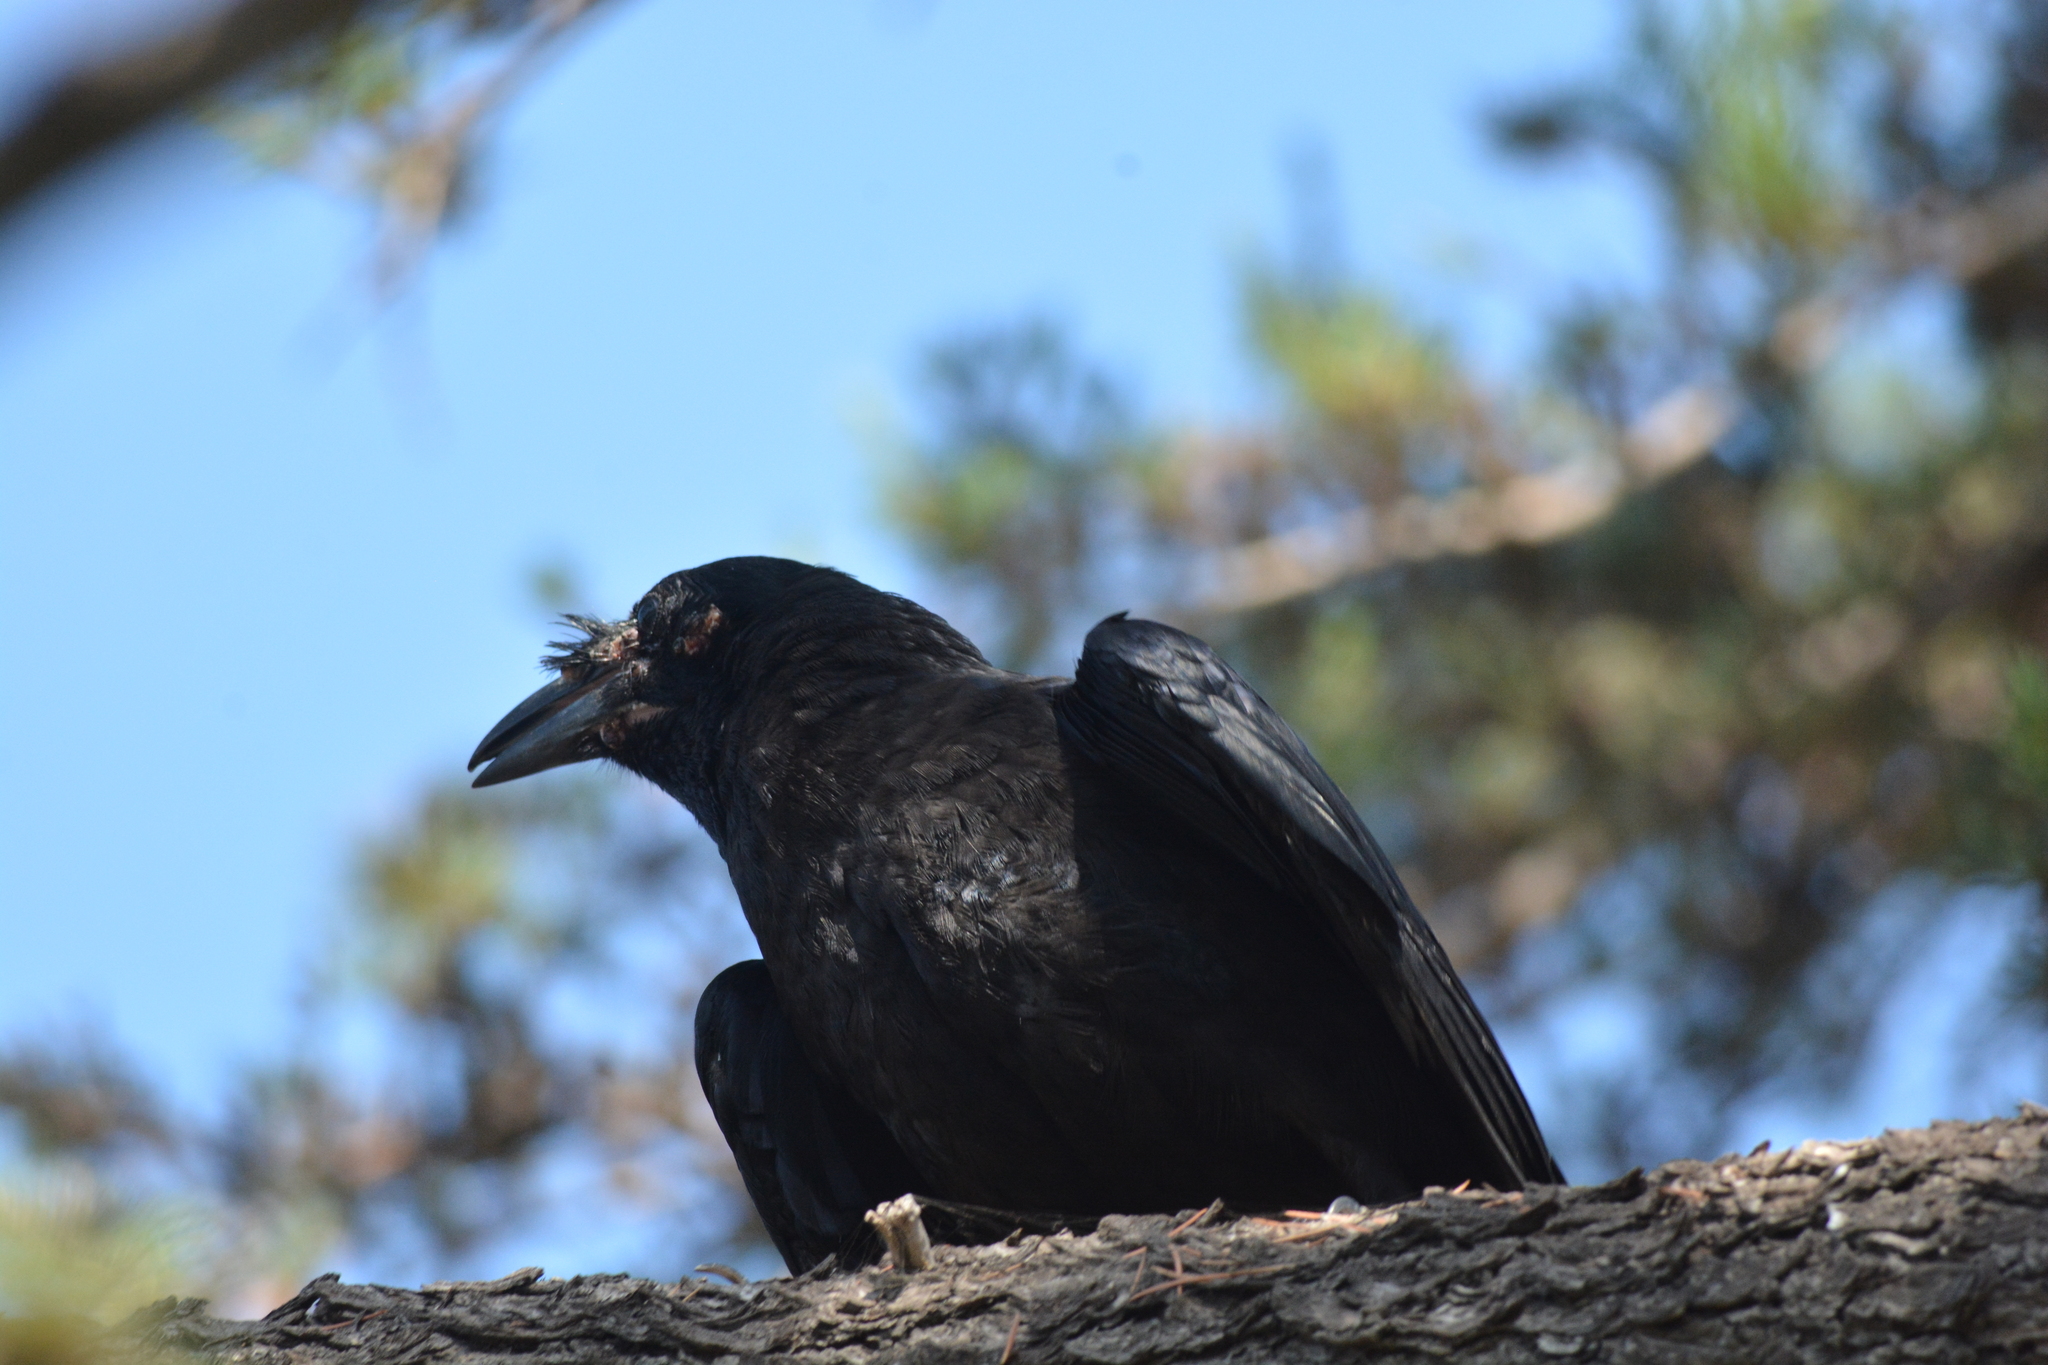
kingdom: Animalia
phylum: Chordata
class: Aves
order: Passeriformes
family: Corvidae
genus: Corvus
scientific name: Corvus corax
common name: Common raven
